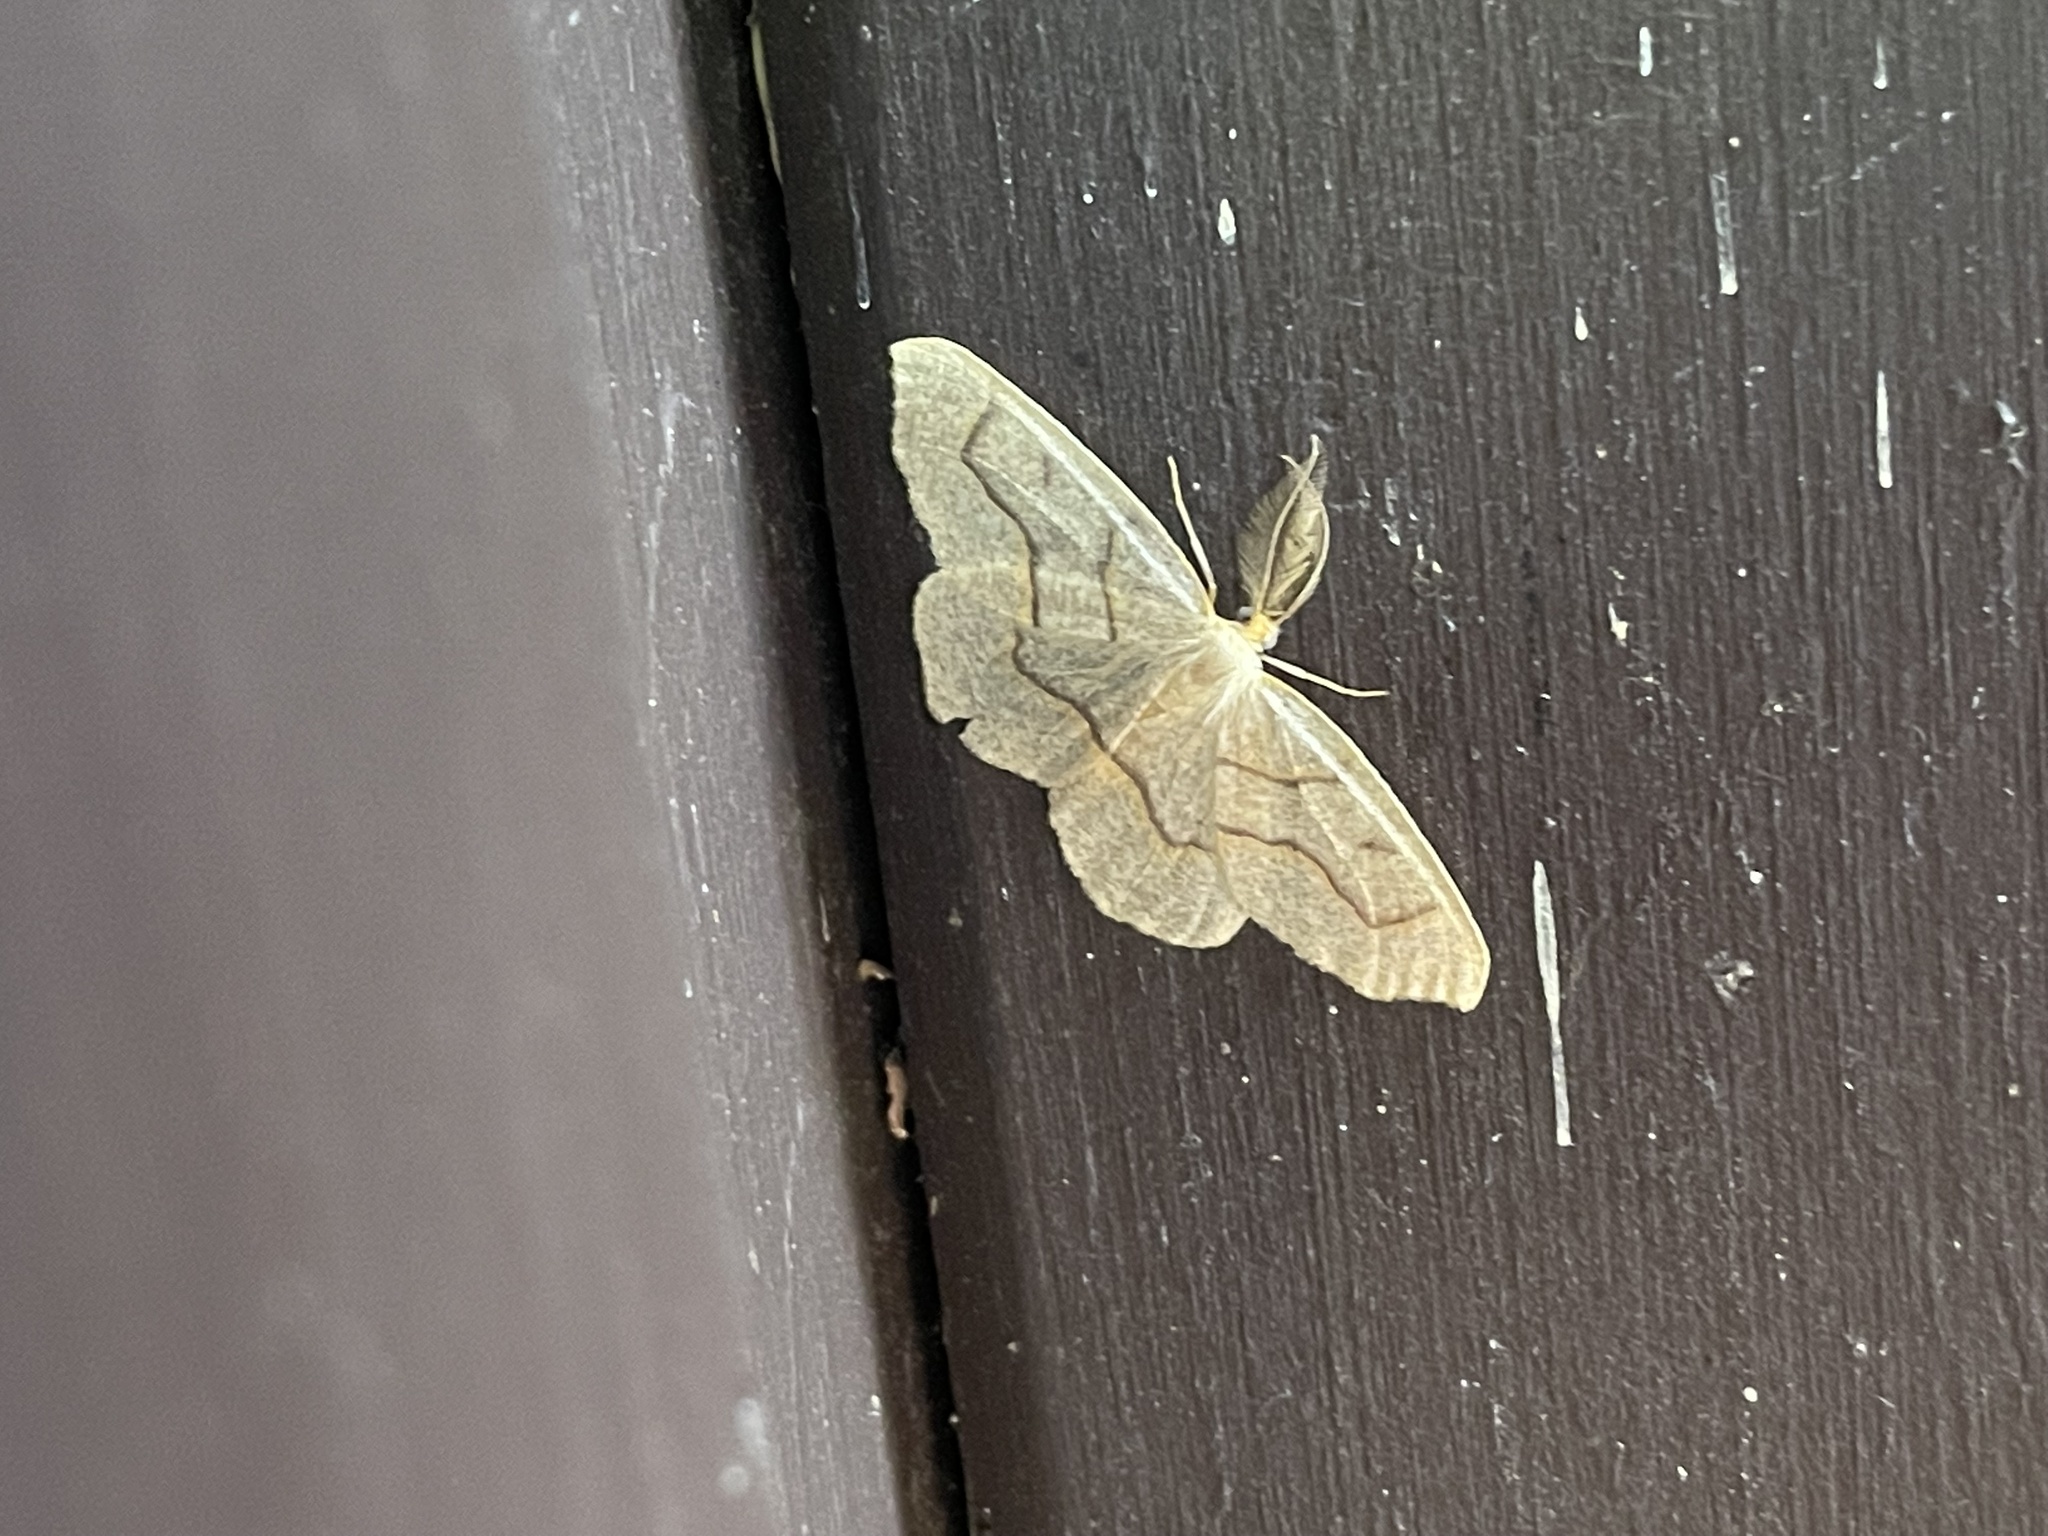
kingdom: Animalia
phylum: Arthropoda
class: Insecta
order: Lepidoptera
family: Geometridae
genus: Lambdina
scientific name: Lambdina fiscellaria
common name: Hemlock looper
